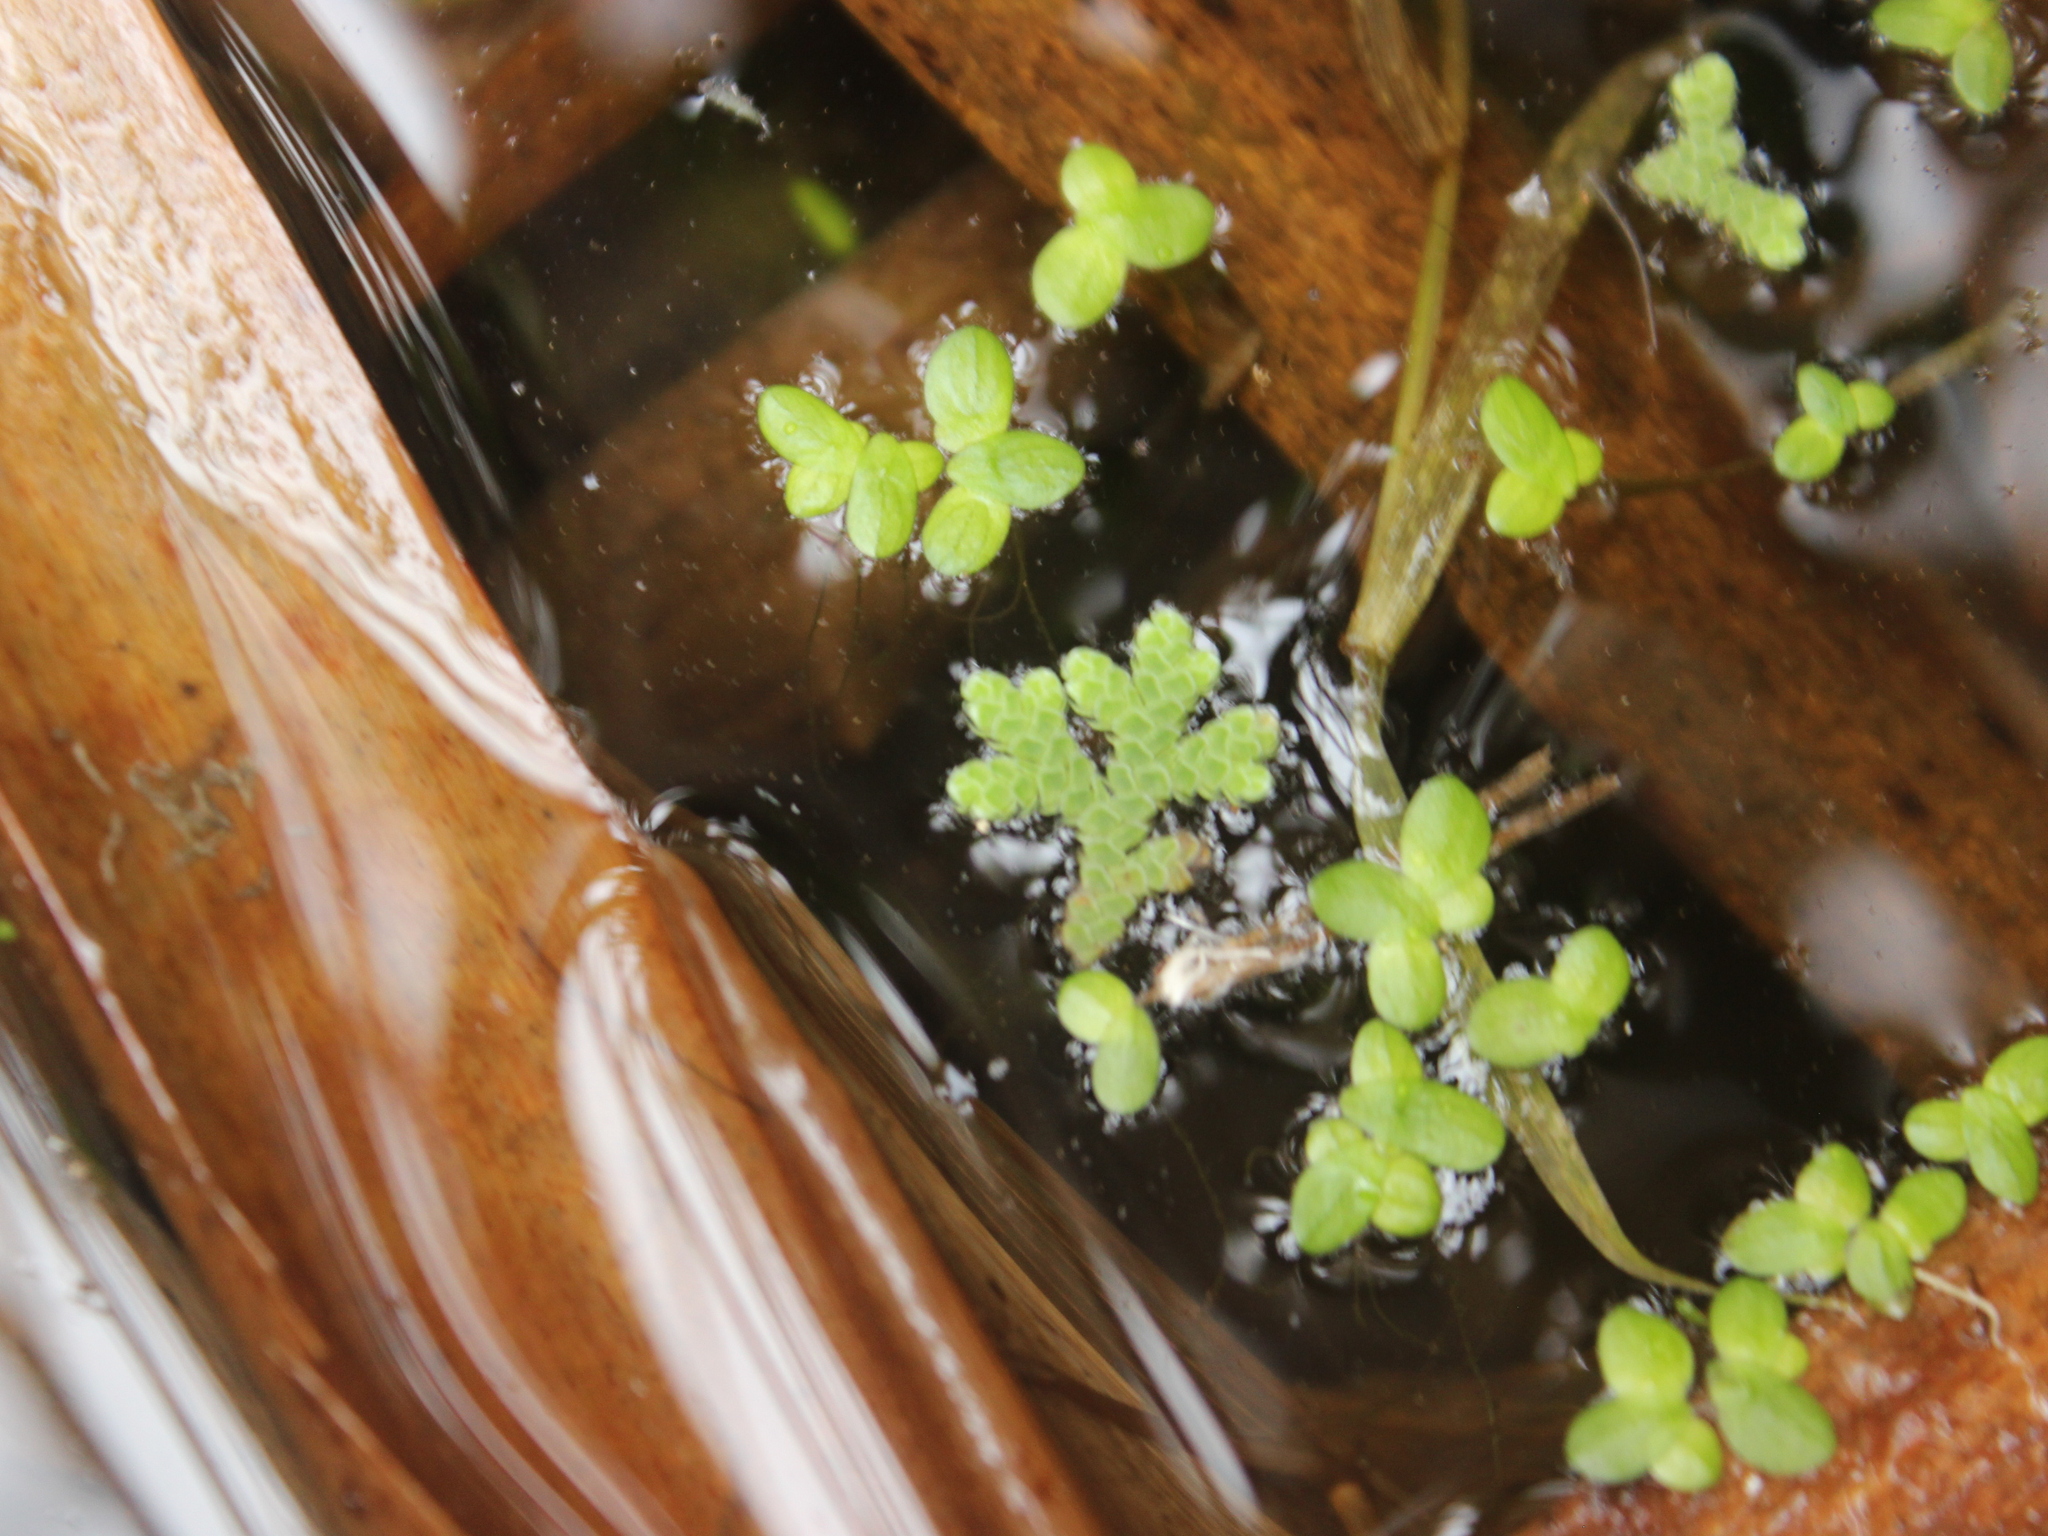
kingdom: Plantae
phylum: Tracheophyta
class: Polypodiopsida
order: Salviniales
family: Salviniaceae
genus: Azolla
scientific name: Azolla rubra
